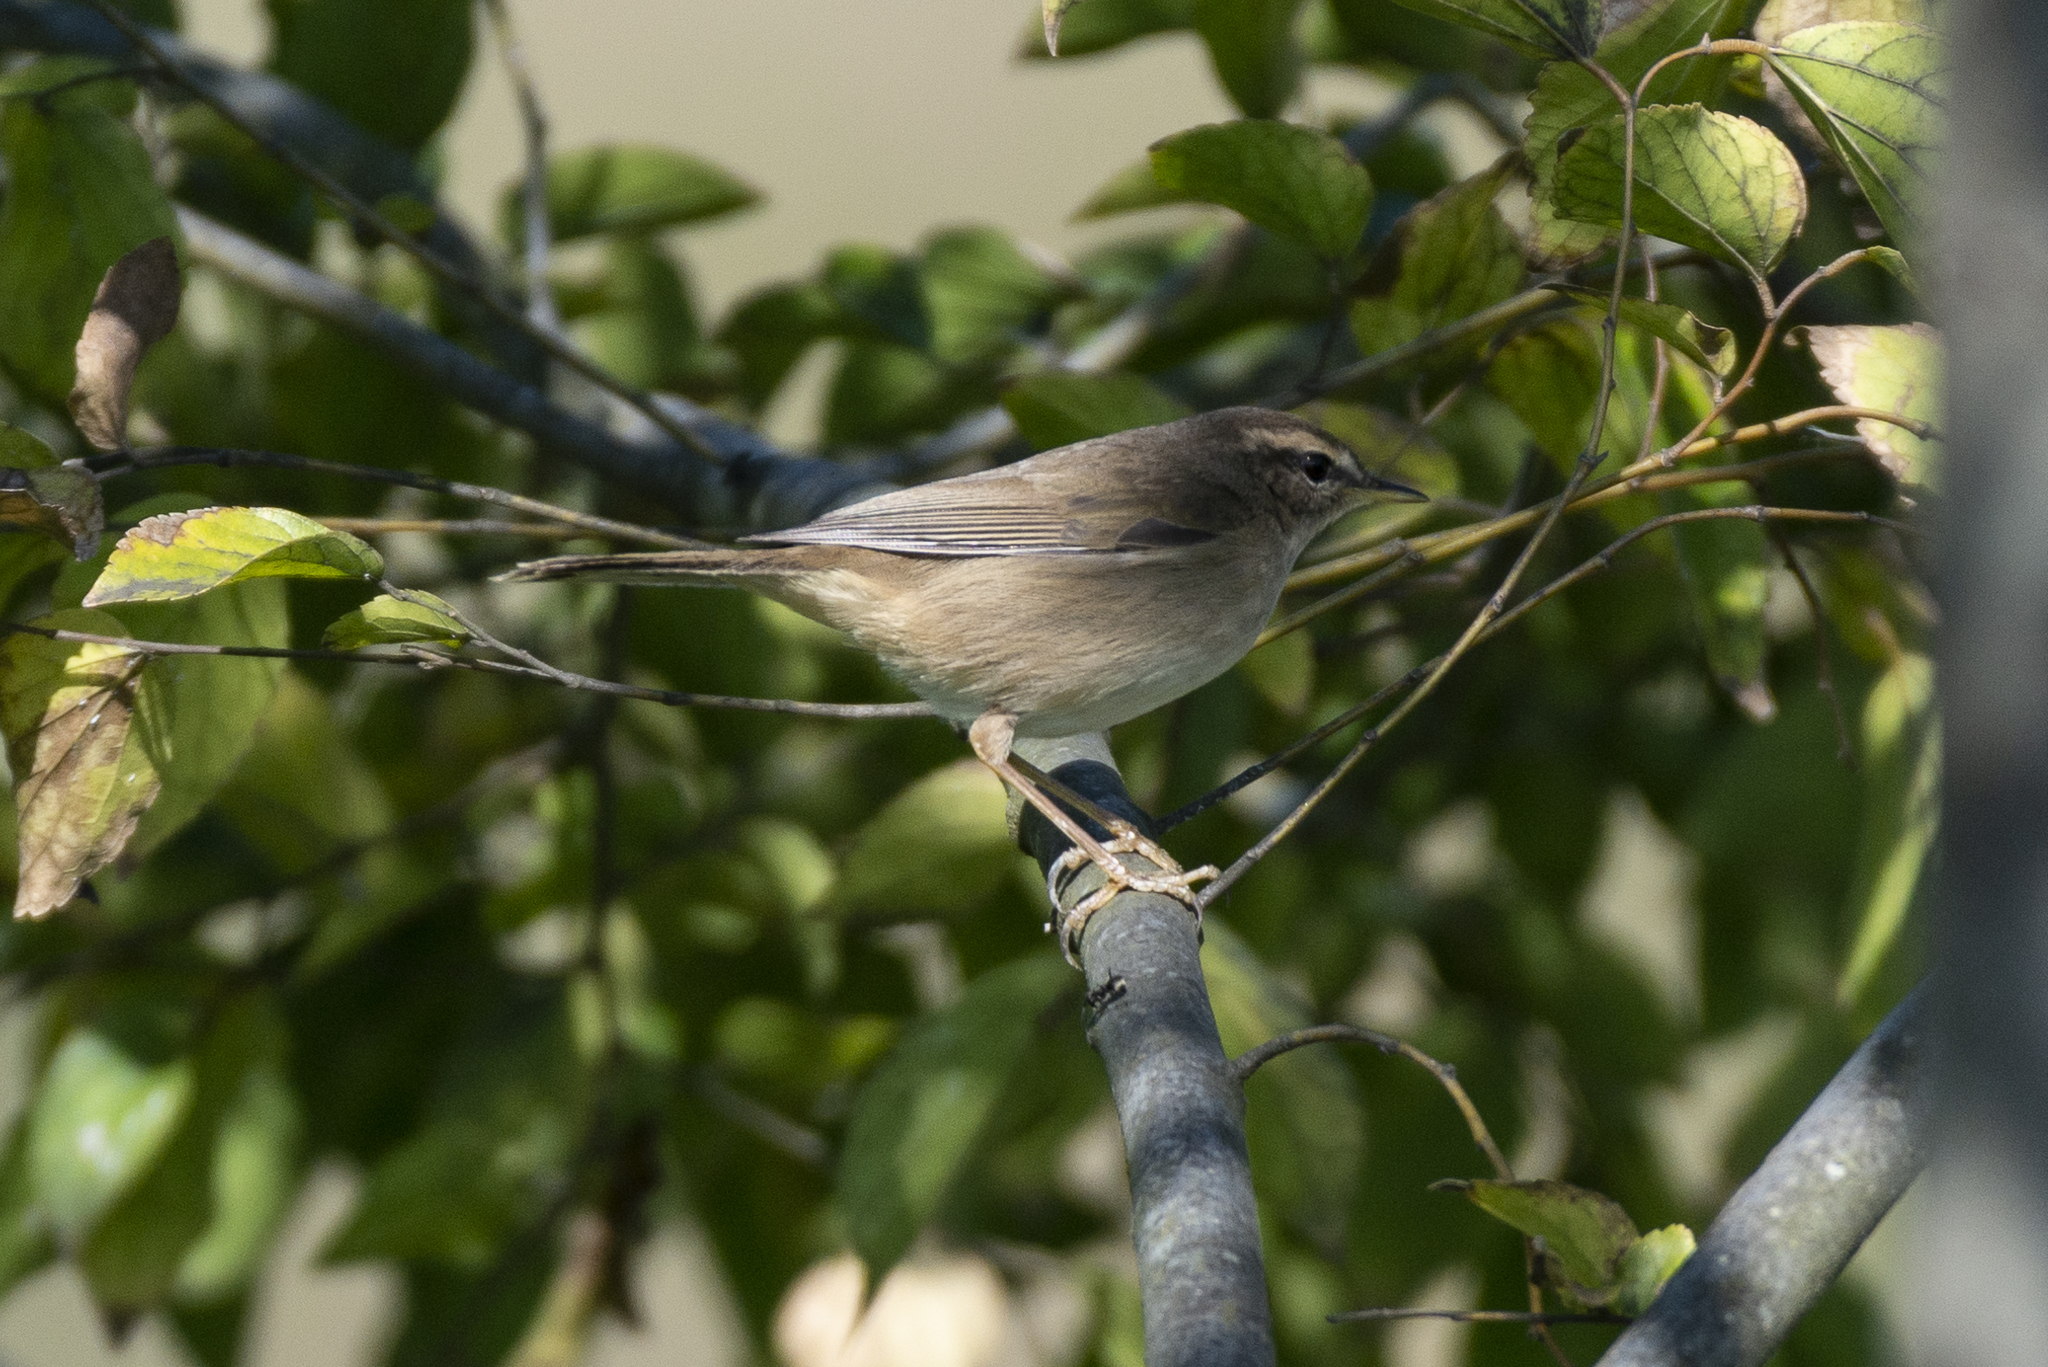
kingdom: Animalia
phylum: Chordata
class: Aves
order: Passeriformes
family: Phylloscopidae
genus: Phylloscopus
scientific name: Phylloscopus fuscatus
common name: Dusky warbler
